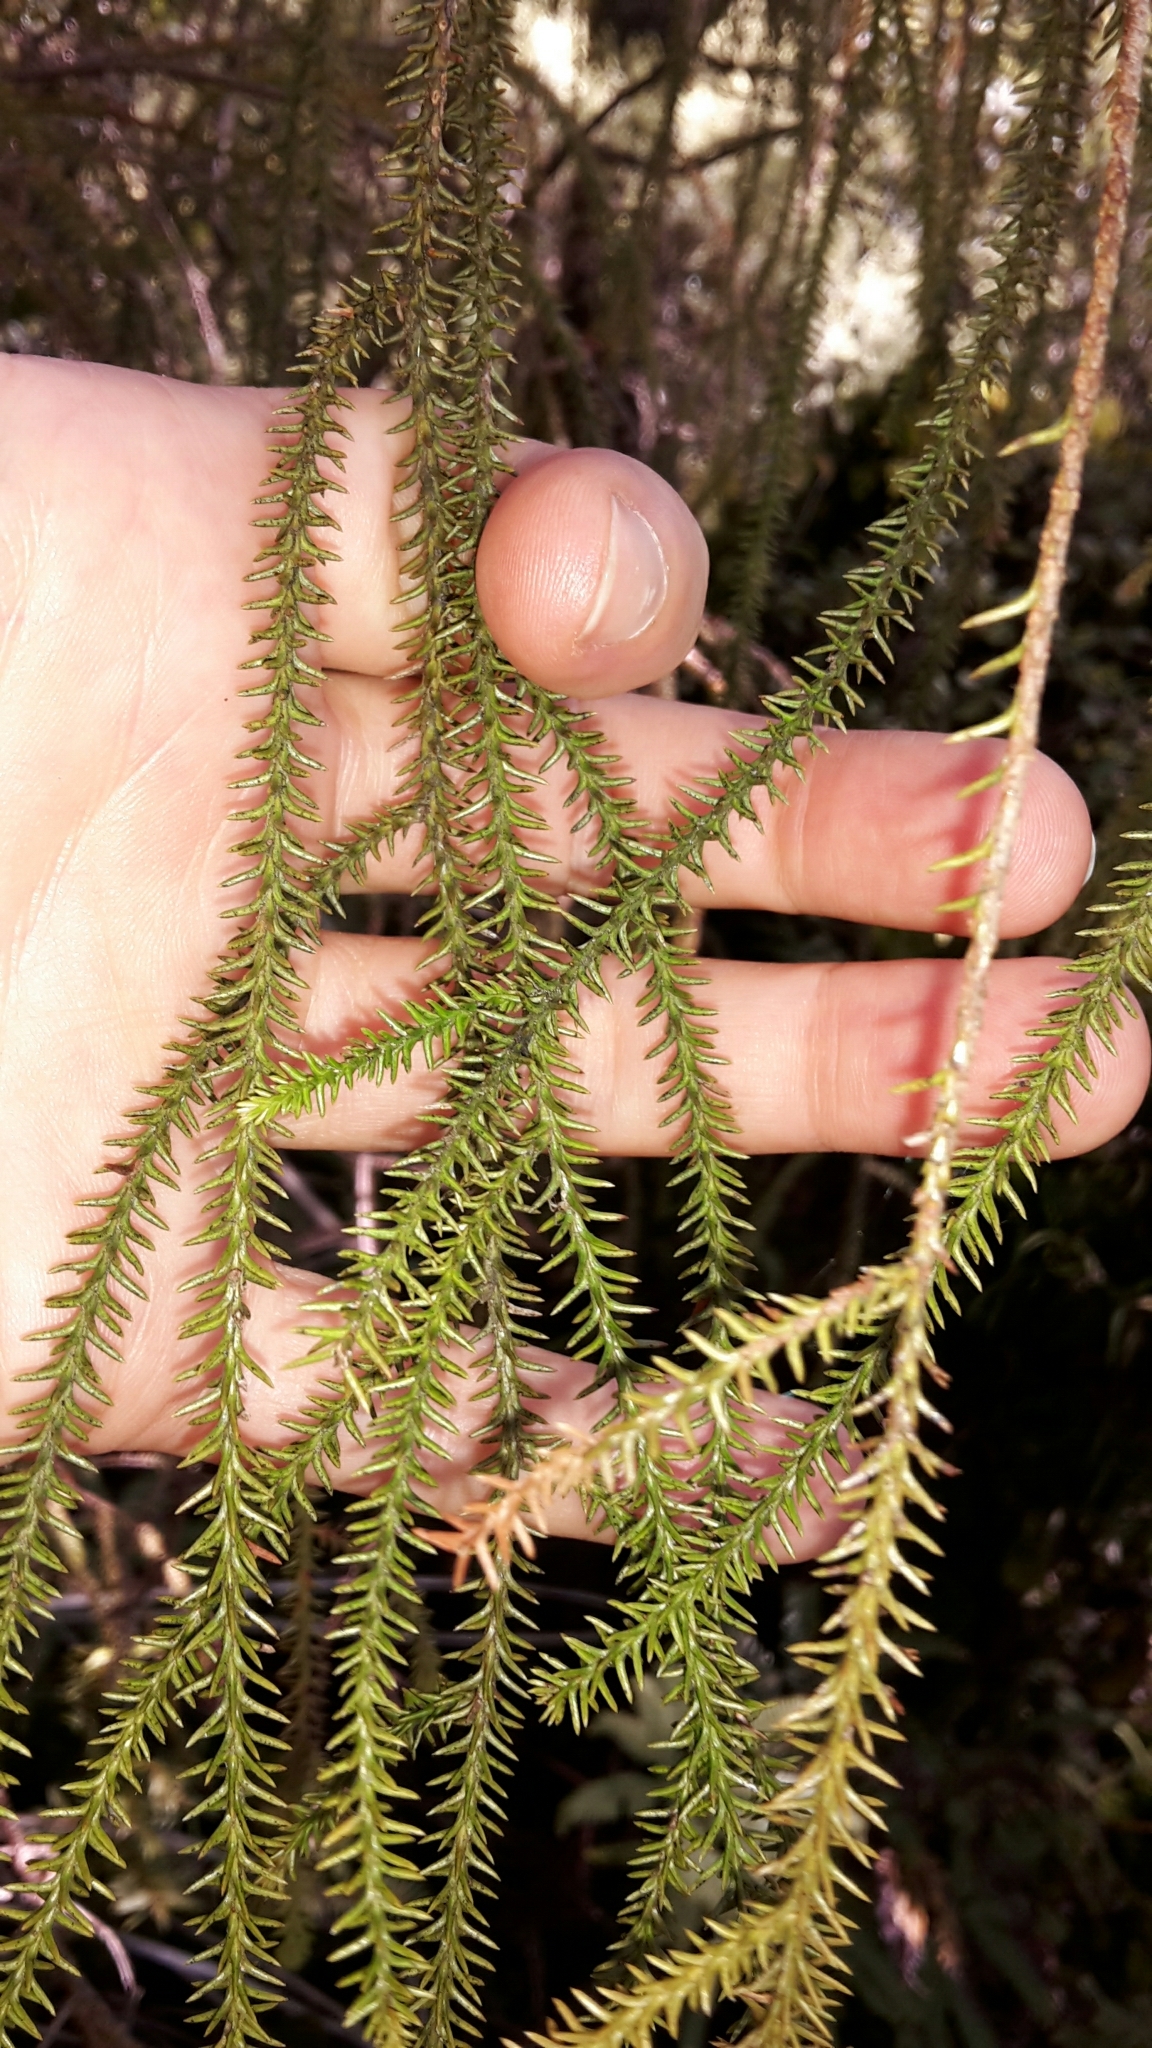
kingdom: Plantae
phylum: Tracheophyta
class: Pinopsida
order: Pinales
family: Podocarpaceae
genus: Dacrydium
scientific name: Dacrydium cupressinum
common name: Red pine
